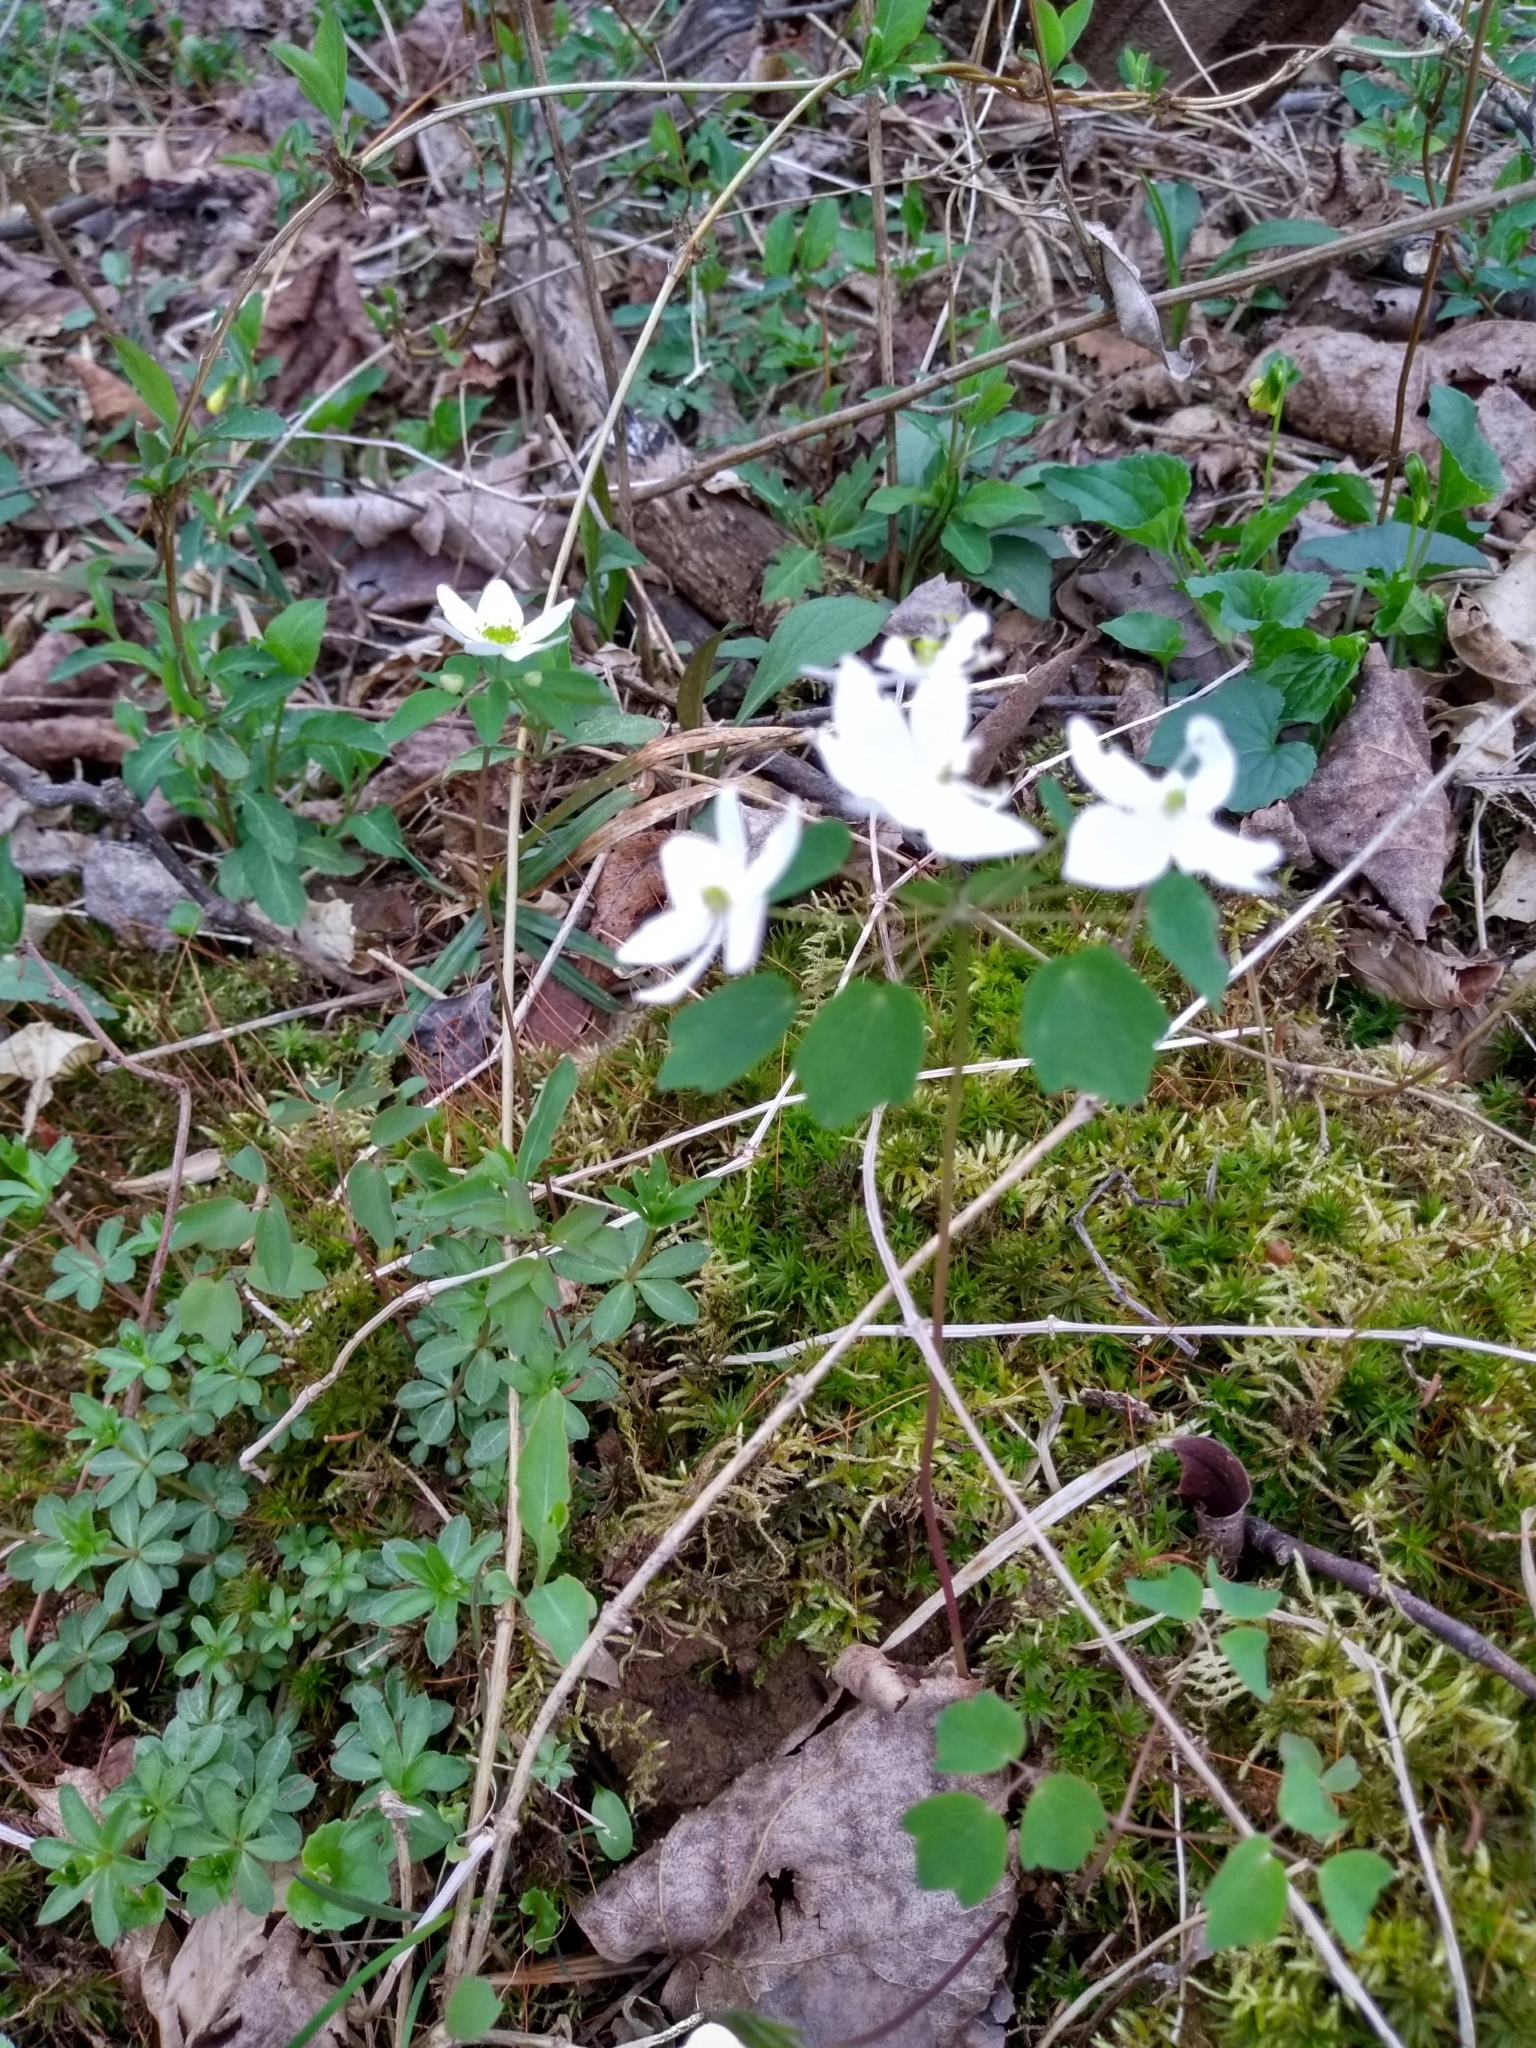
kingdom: Plantae
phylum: Tracheophyta
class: Magnoliopsida
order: Ranunculales
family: Ranunculaceae
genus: Thalictrum
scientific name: Thalictrum thalictroides
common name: Rue-anemone
